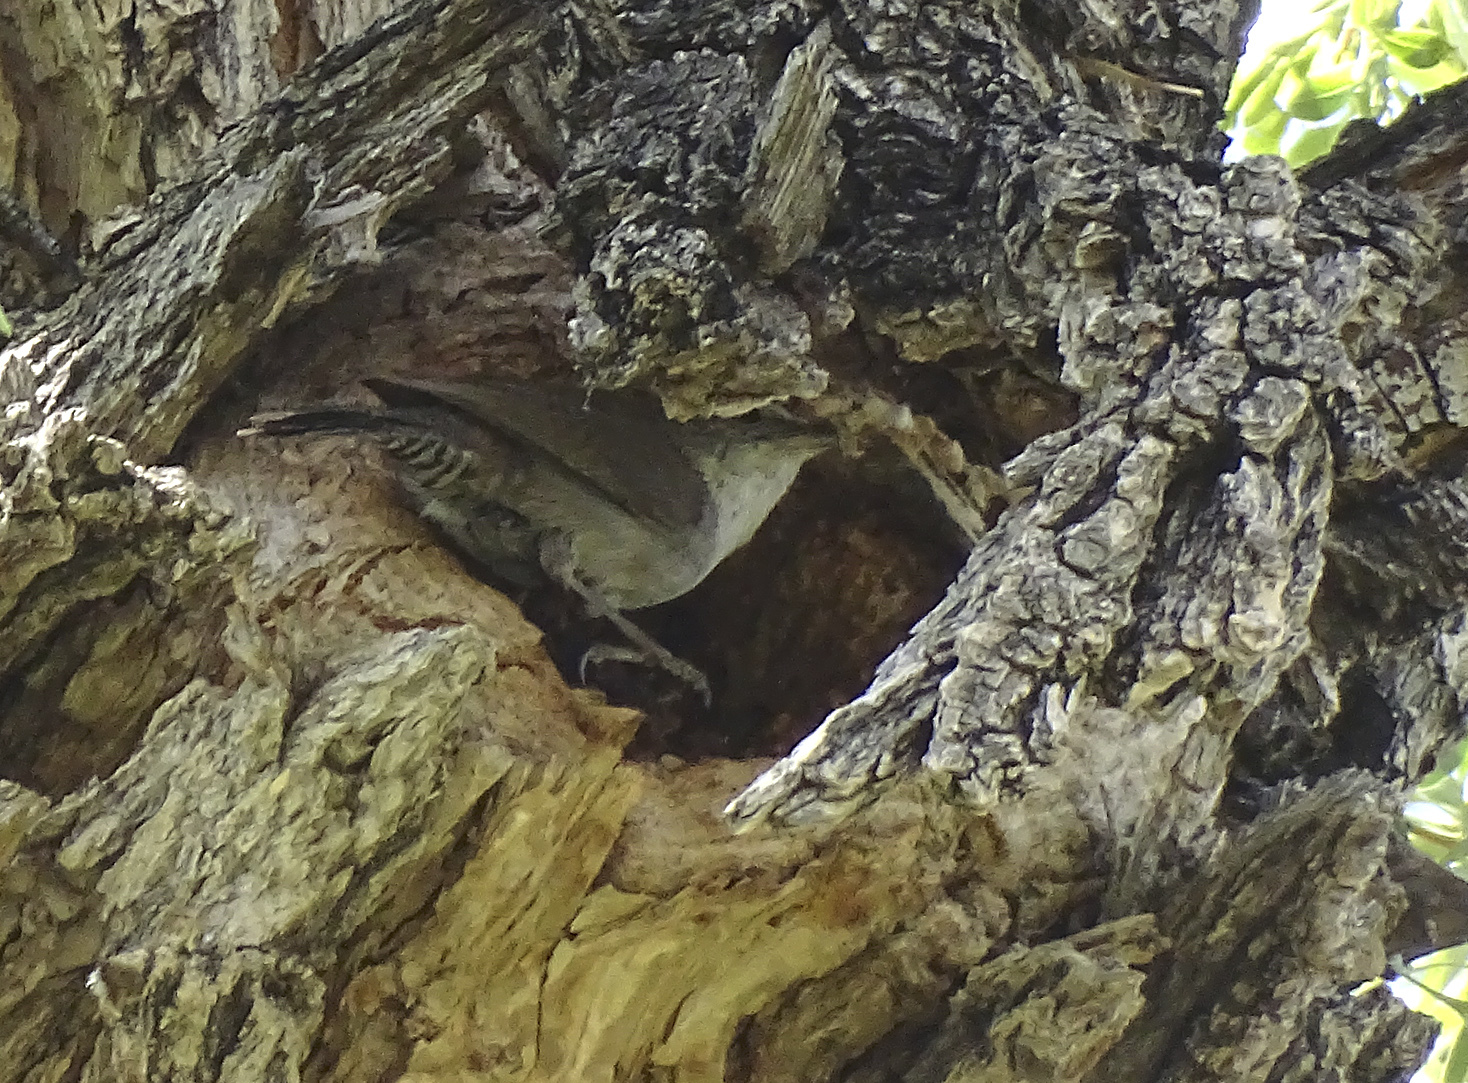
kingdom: Animalia
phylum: Chordata
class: Aves
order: Passeriformes
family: Troglodytidae
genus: Thryomanes
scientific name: Thryomanes bewickii
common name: Bewick's wren
